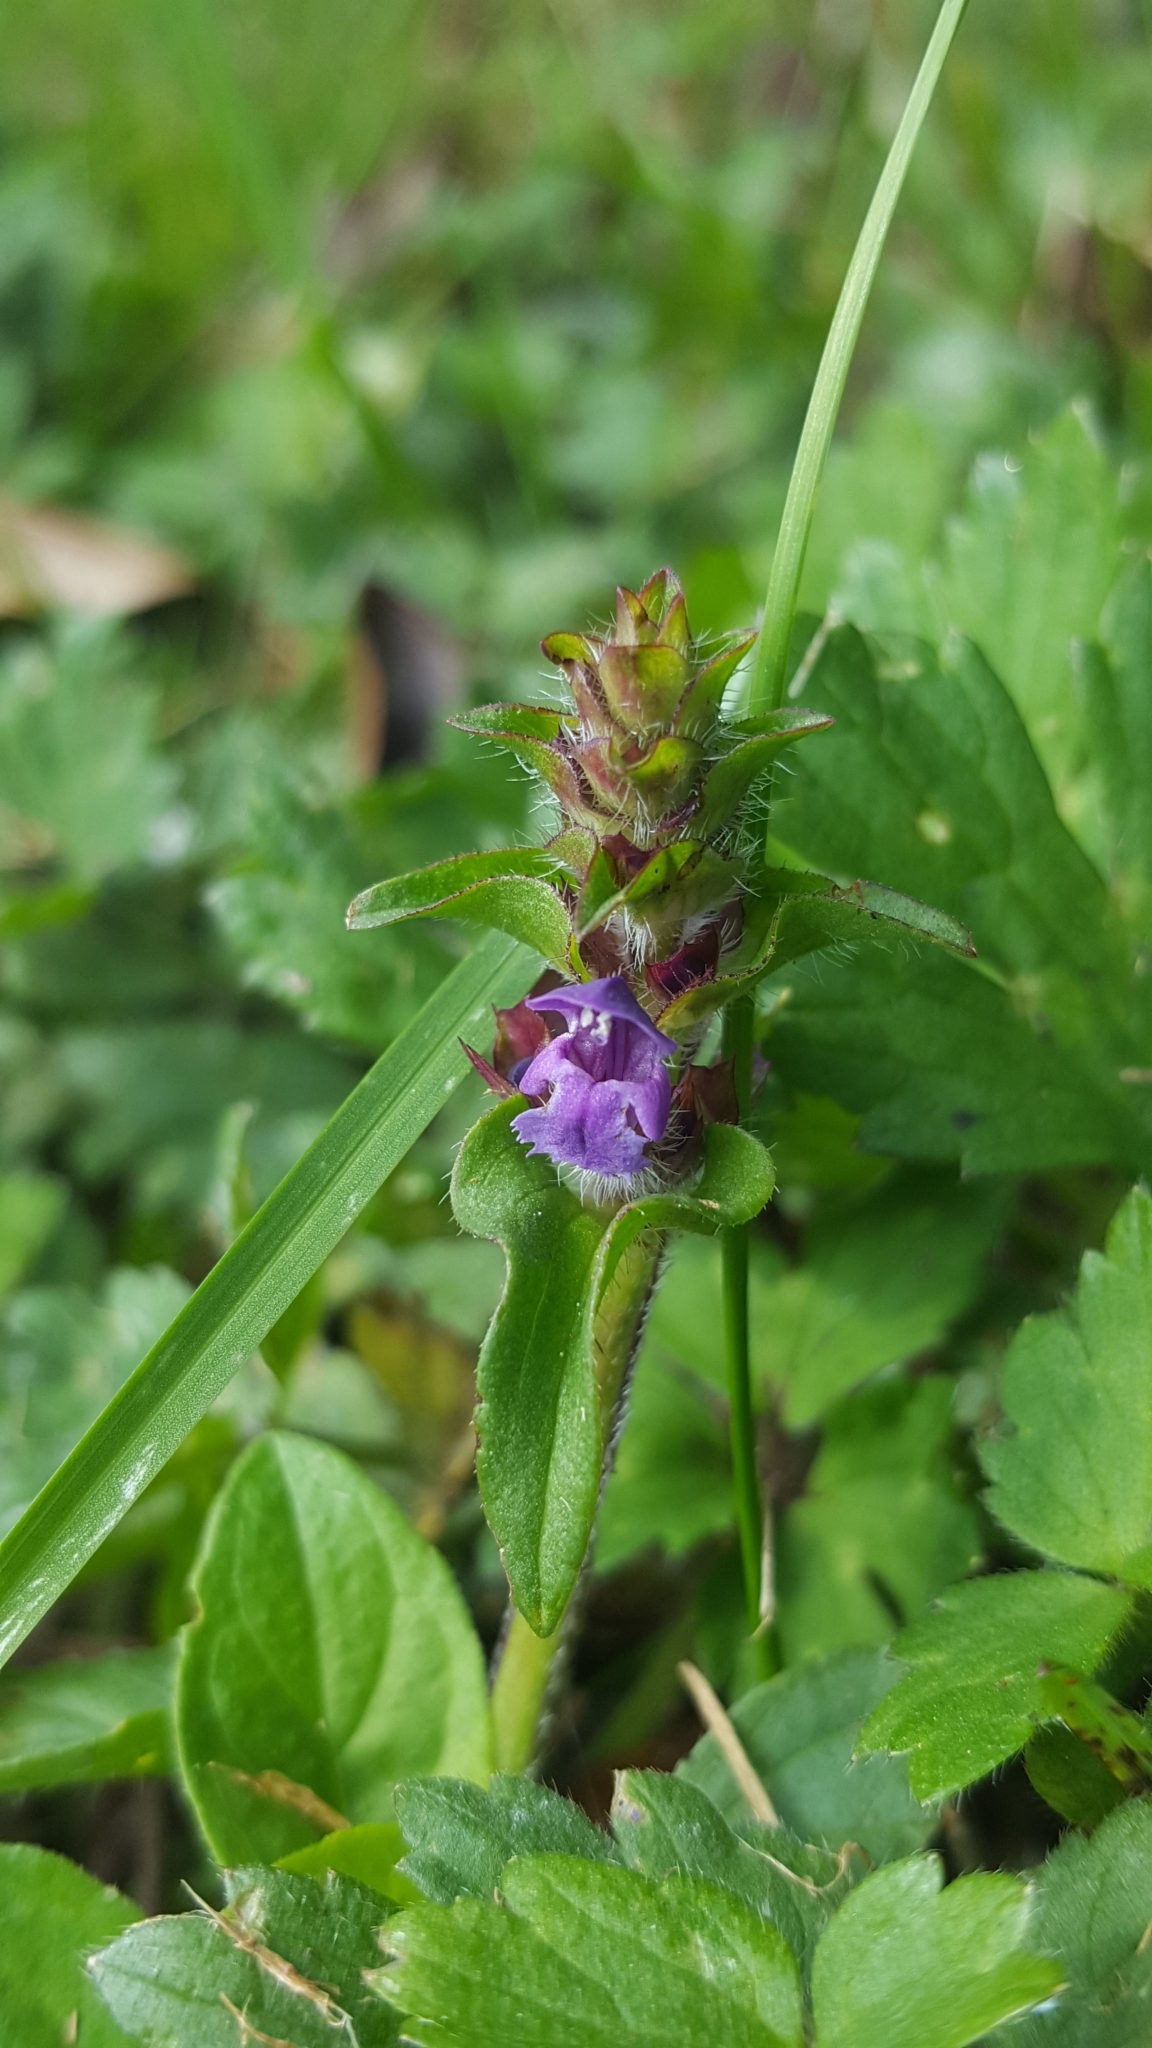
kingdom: Plantae
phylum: Tracheophyta
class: Magnoliopsida
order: Lamiales
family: Lamiaceae
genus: Prunella
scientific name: Prunella vulgaris
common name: Heal-all
